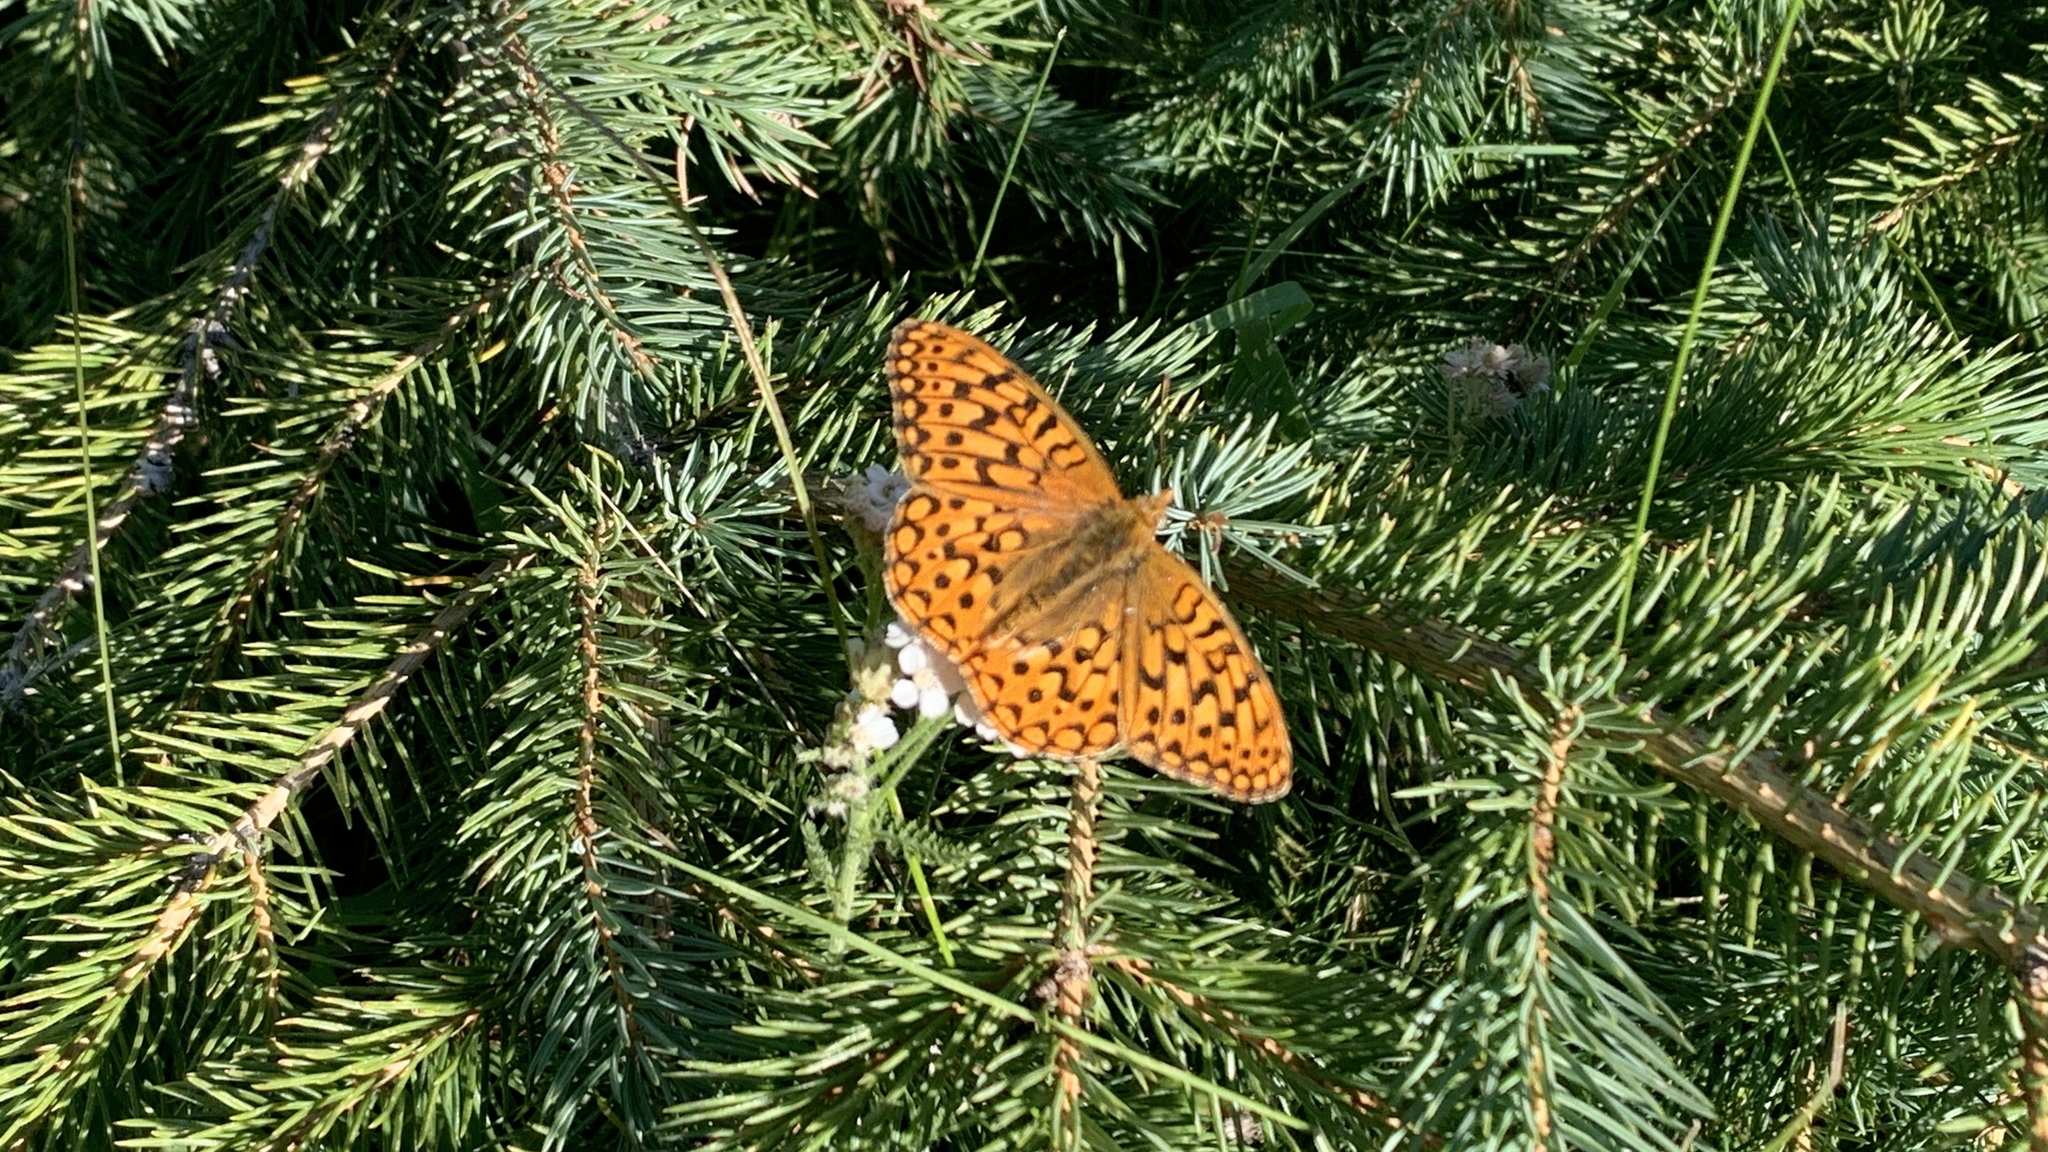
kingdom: Animalia
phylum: Arthropoda
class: Insecta
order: Lepidoptera
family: Nymphalidae
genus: Speyeria
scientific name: Speyeria atlantis
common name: Atlantis fritillary
